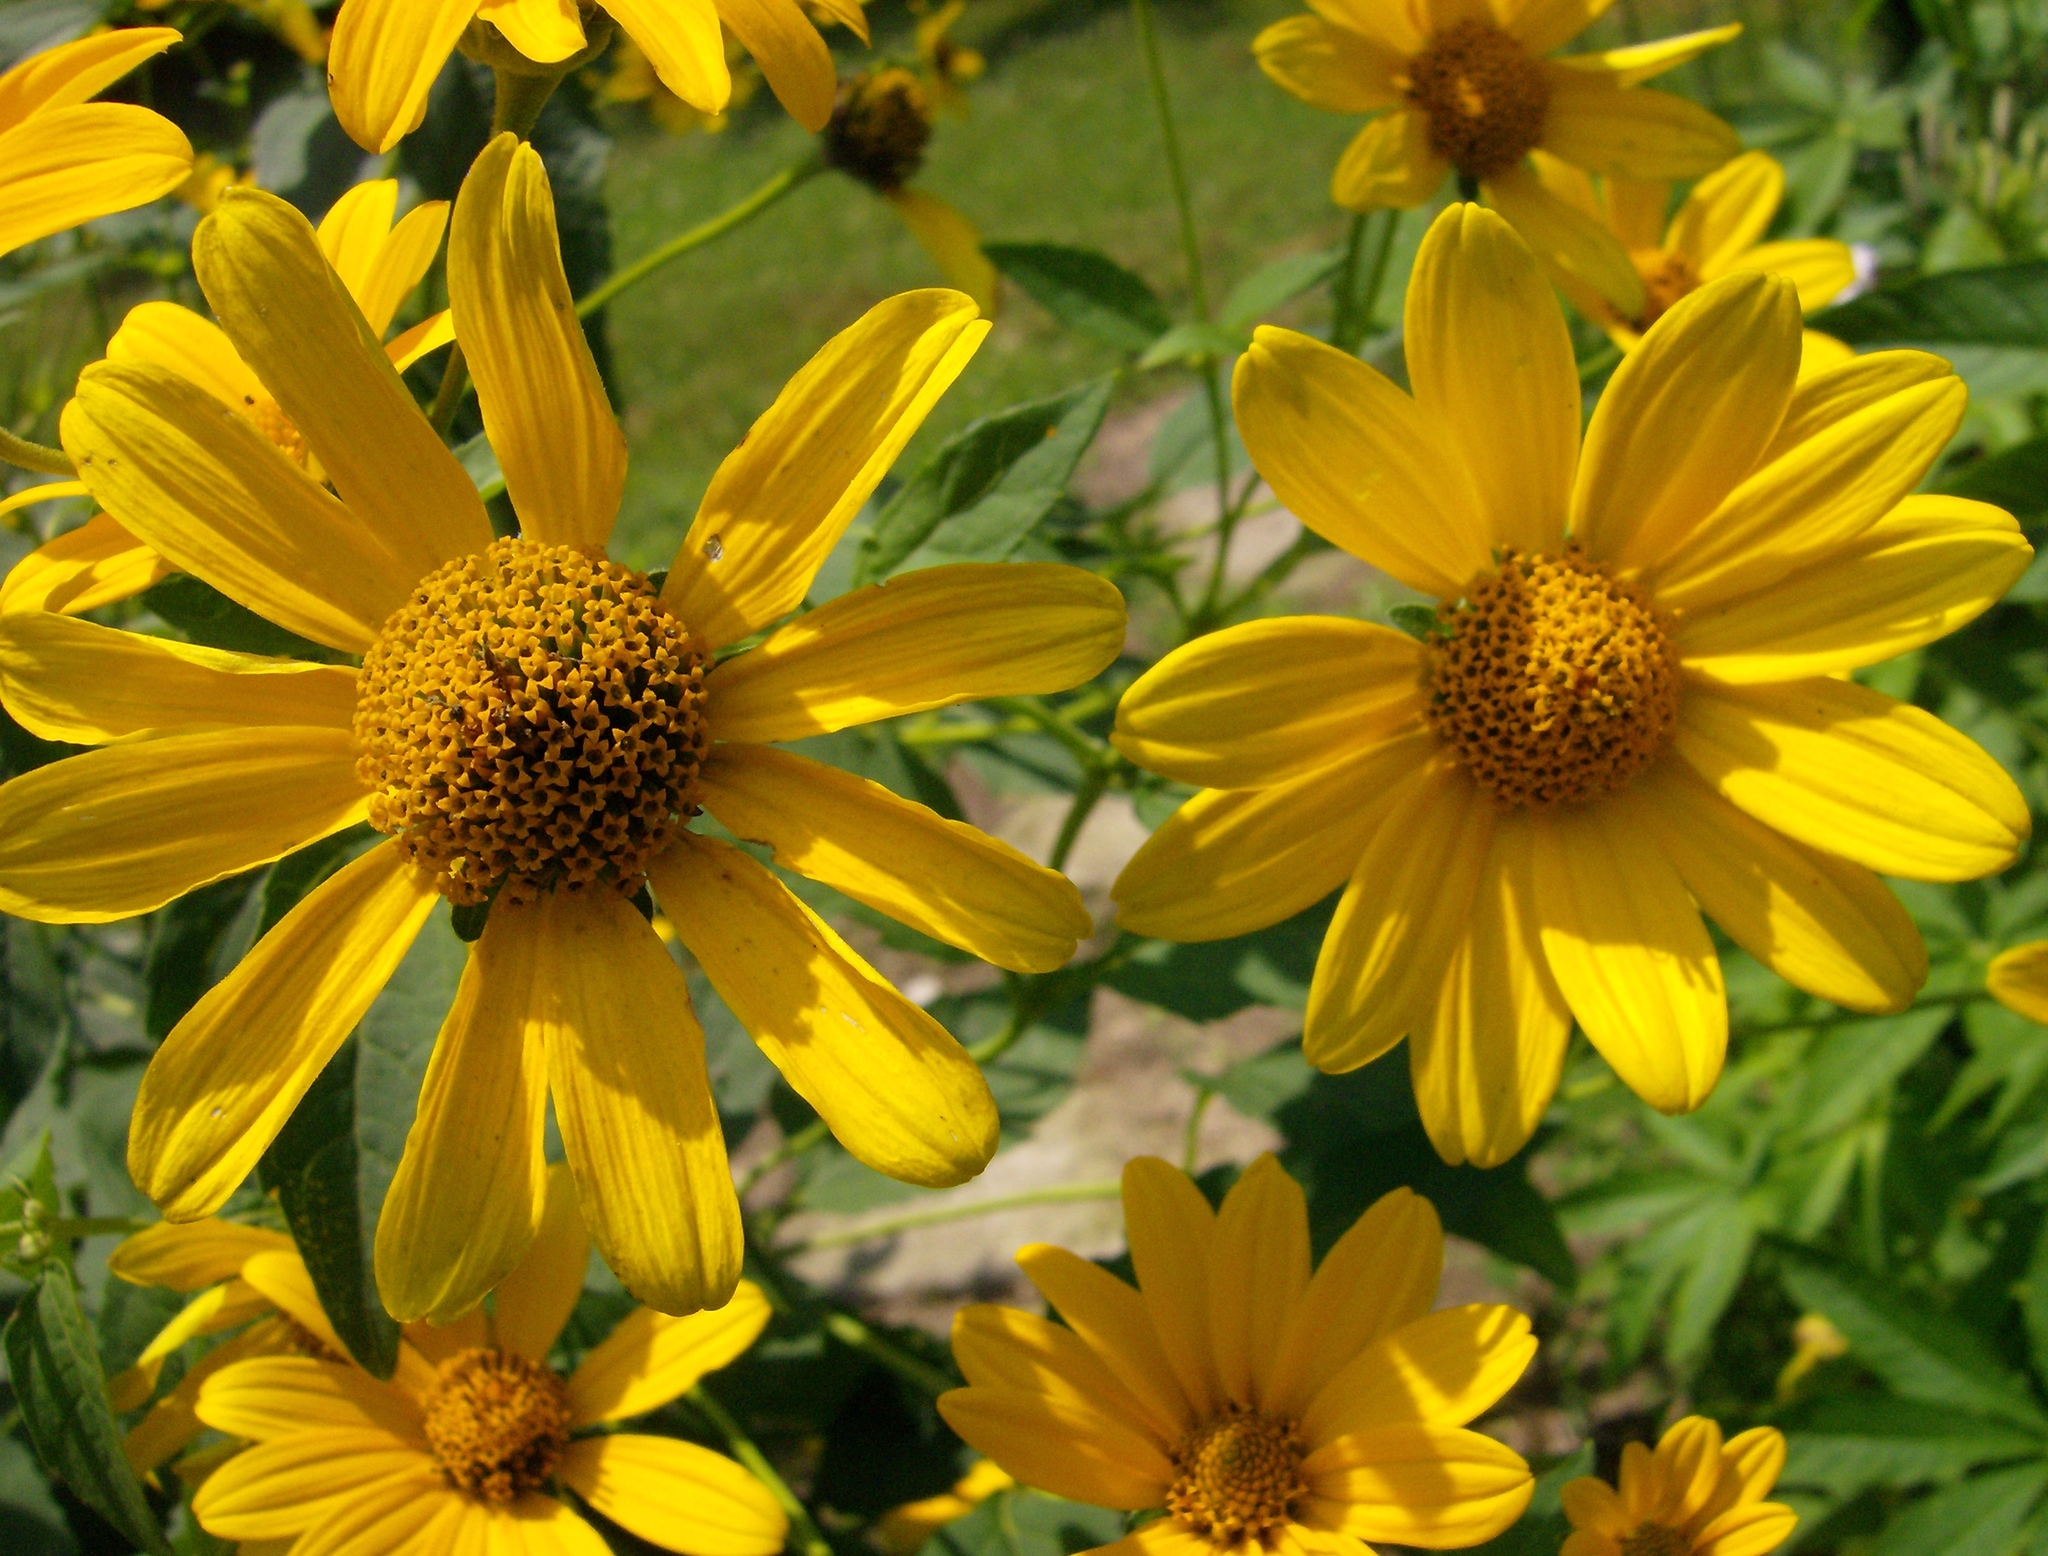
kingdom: Plantae
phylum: Tracheophyta
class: Magnoliopsida
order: Asterales
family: Asteraceae
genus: Heliopsis
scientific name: Heliopsis helianthoides
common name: False sunflower
